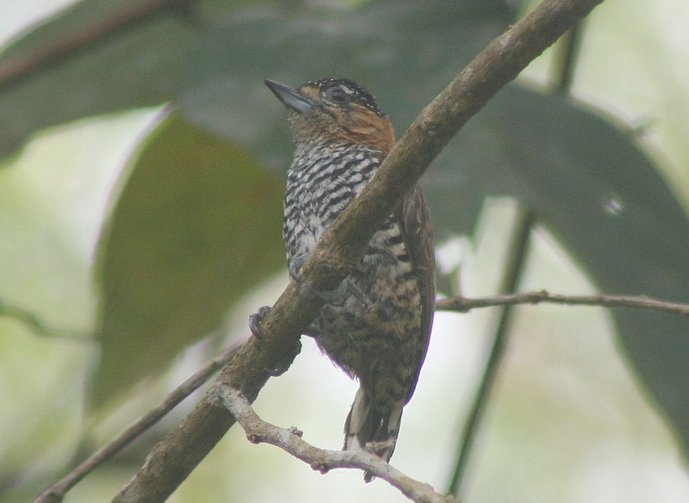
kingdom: Animalia
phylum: Chordata
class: Aves
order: Piciformes
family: Picidae
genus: Picumnus
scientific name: Picumnus temminckii
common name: Ochre-collared piculet
